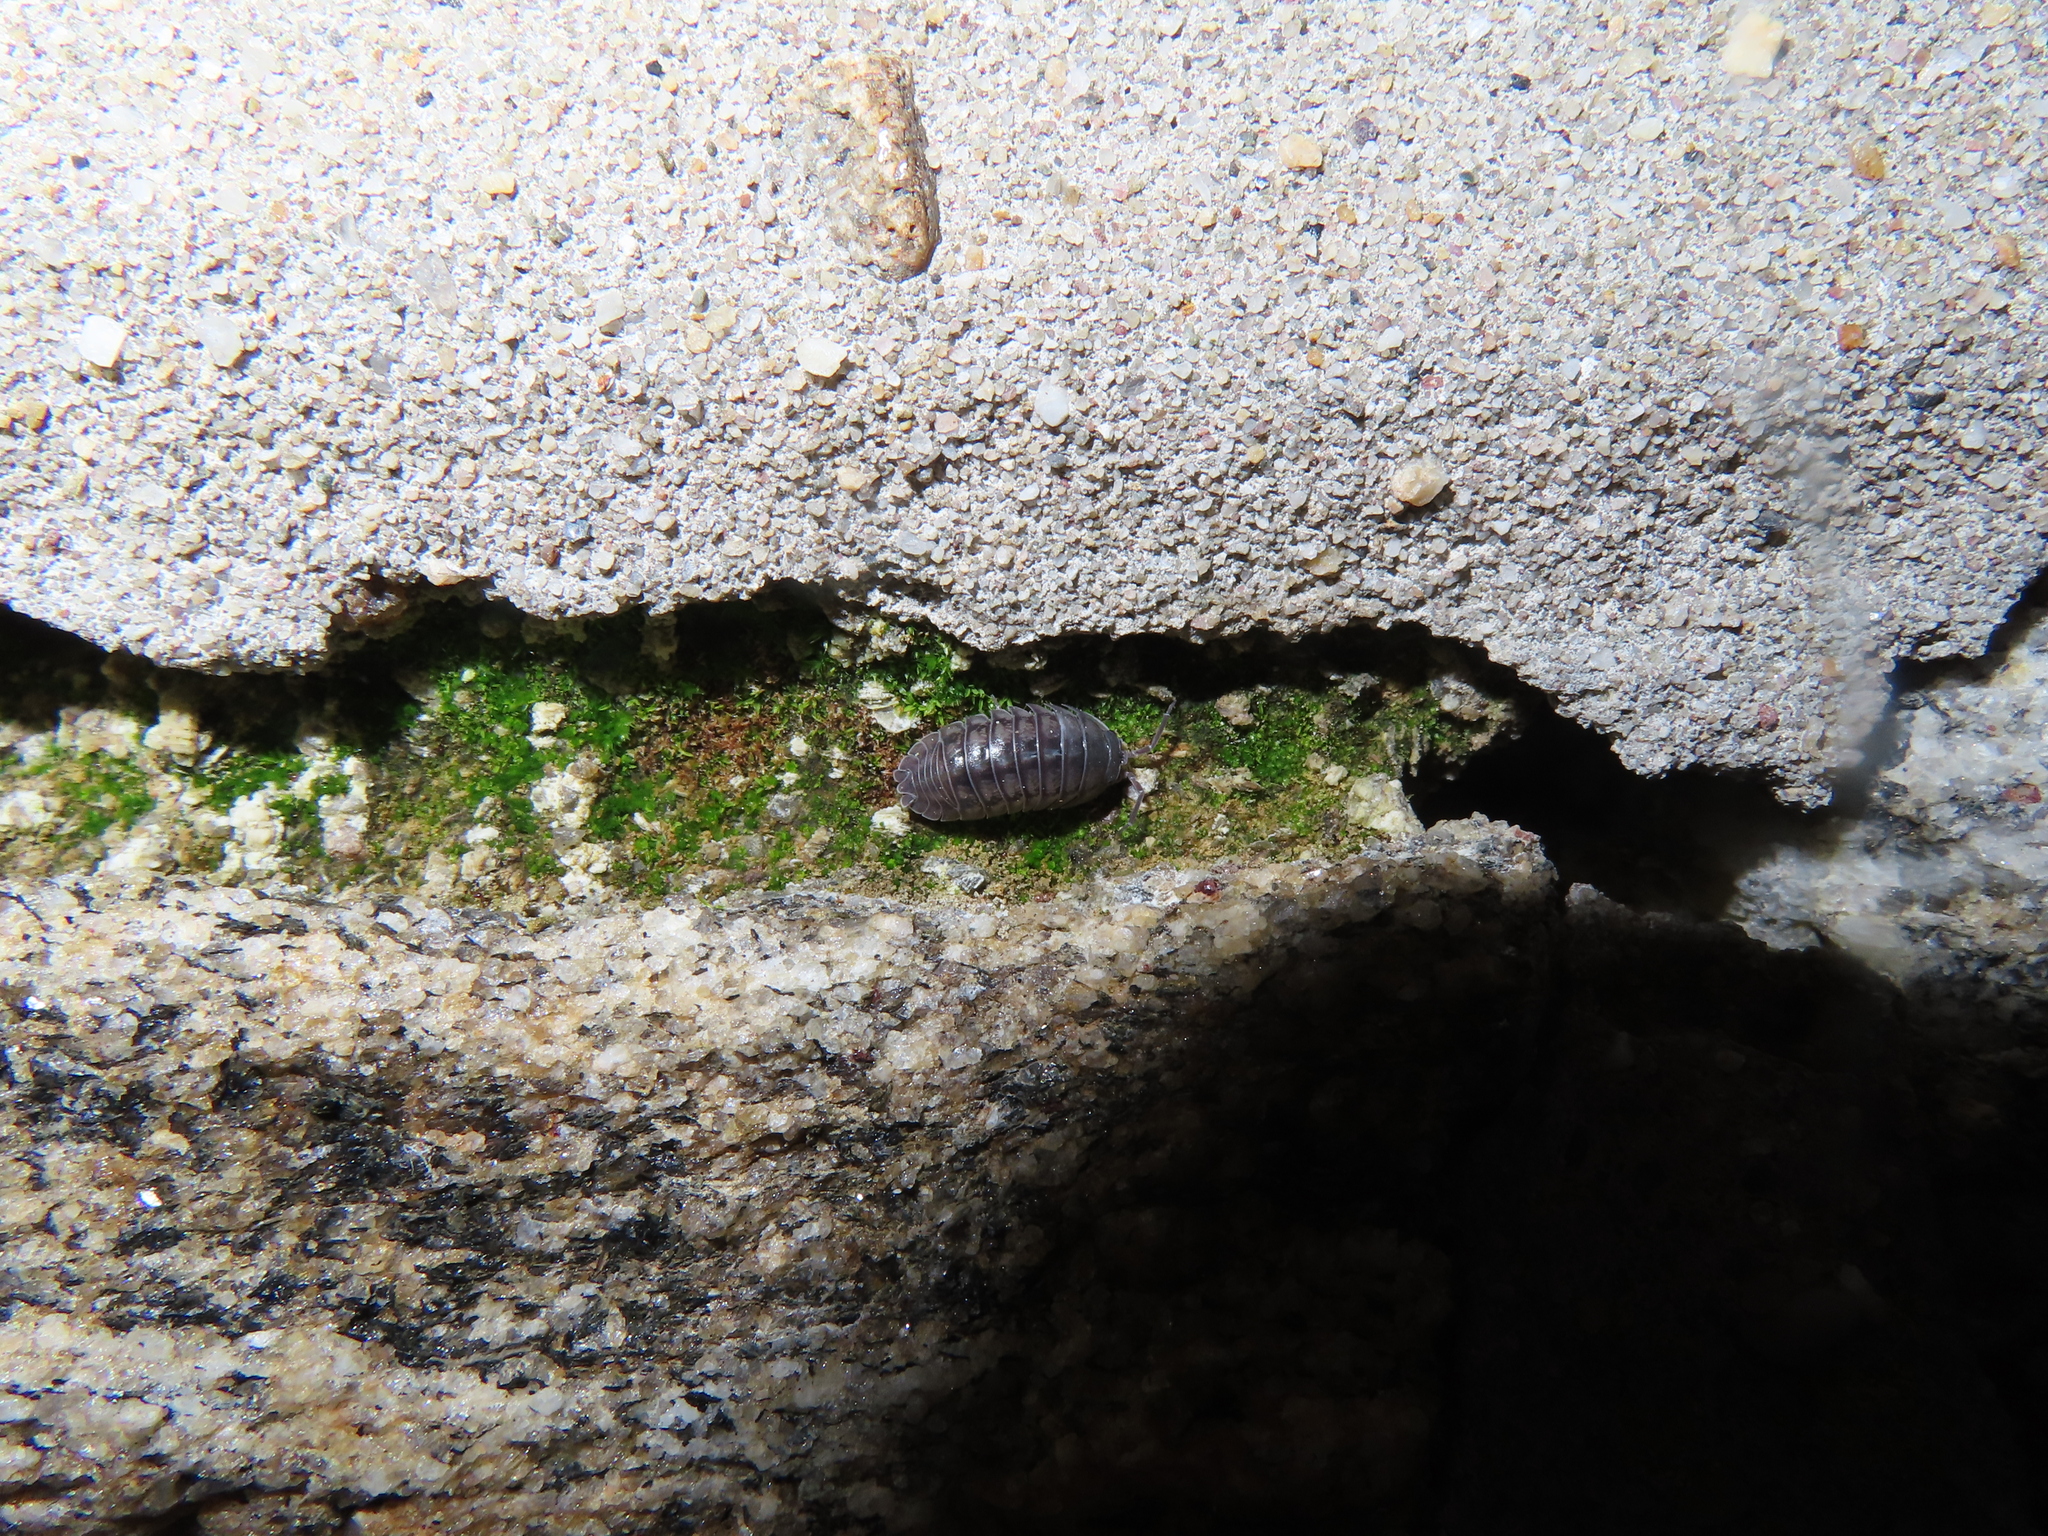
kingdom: Animalia
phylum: Arthropoda
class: Malacostraca
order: Isopoda
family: Armadillidiidae
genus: Armadillidium
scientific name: Armadillidium nasatum
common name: Isopod
